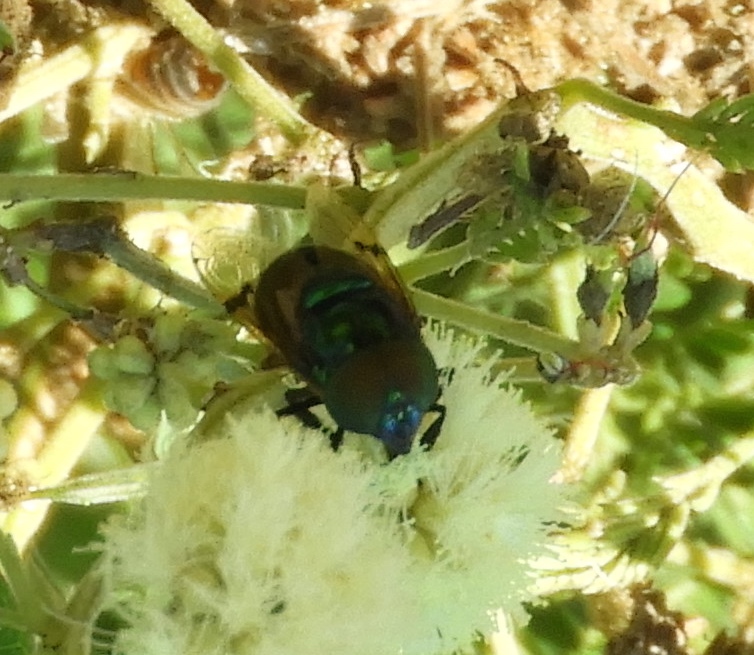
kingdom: Animalia
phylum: Arthropoda
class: Insecta
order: Diptera
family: Syrphidae
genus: Ornidia
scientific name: Ornidia obesa
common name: Syrphid fly
